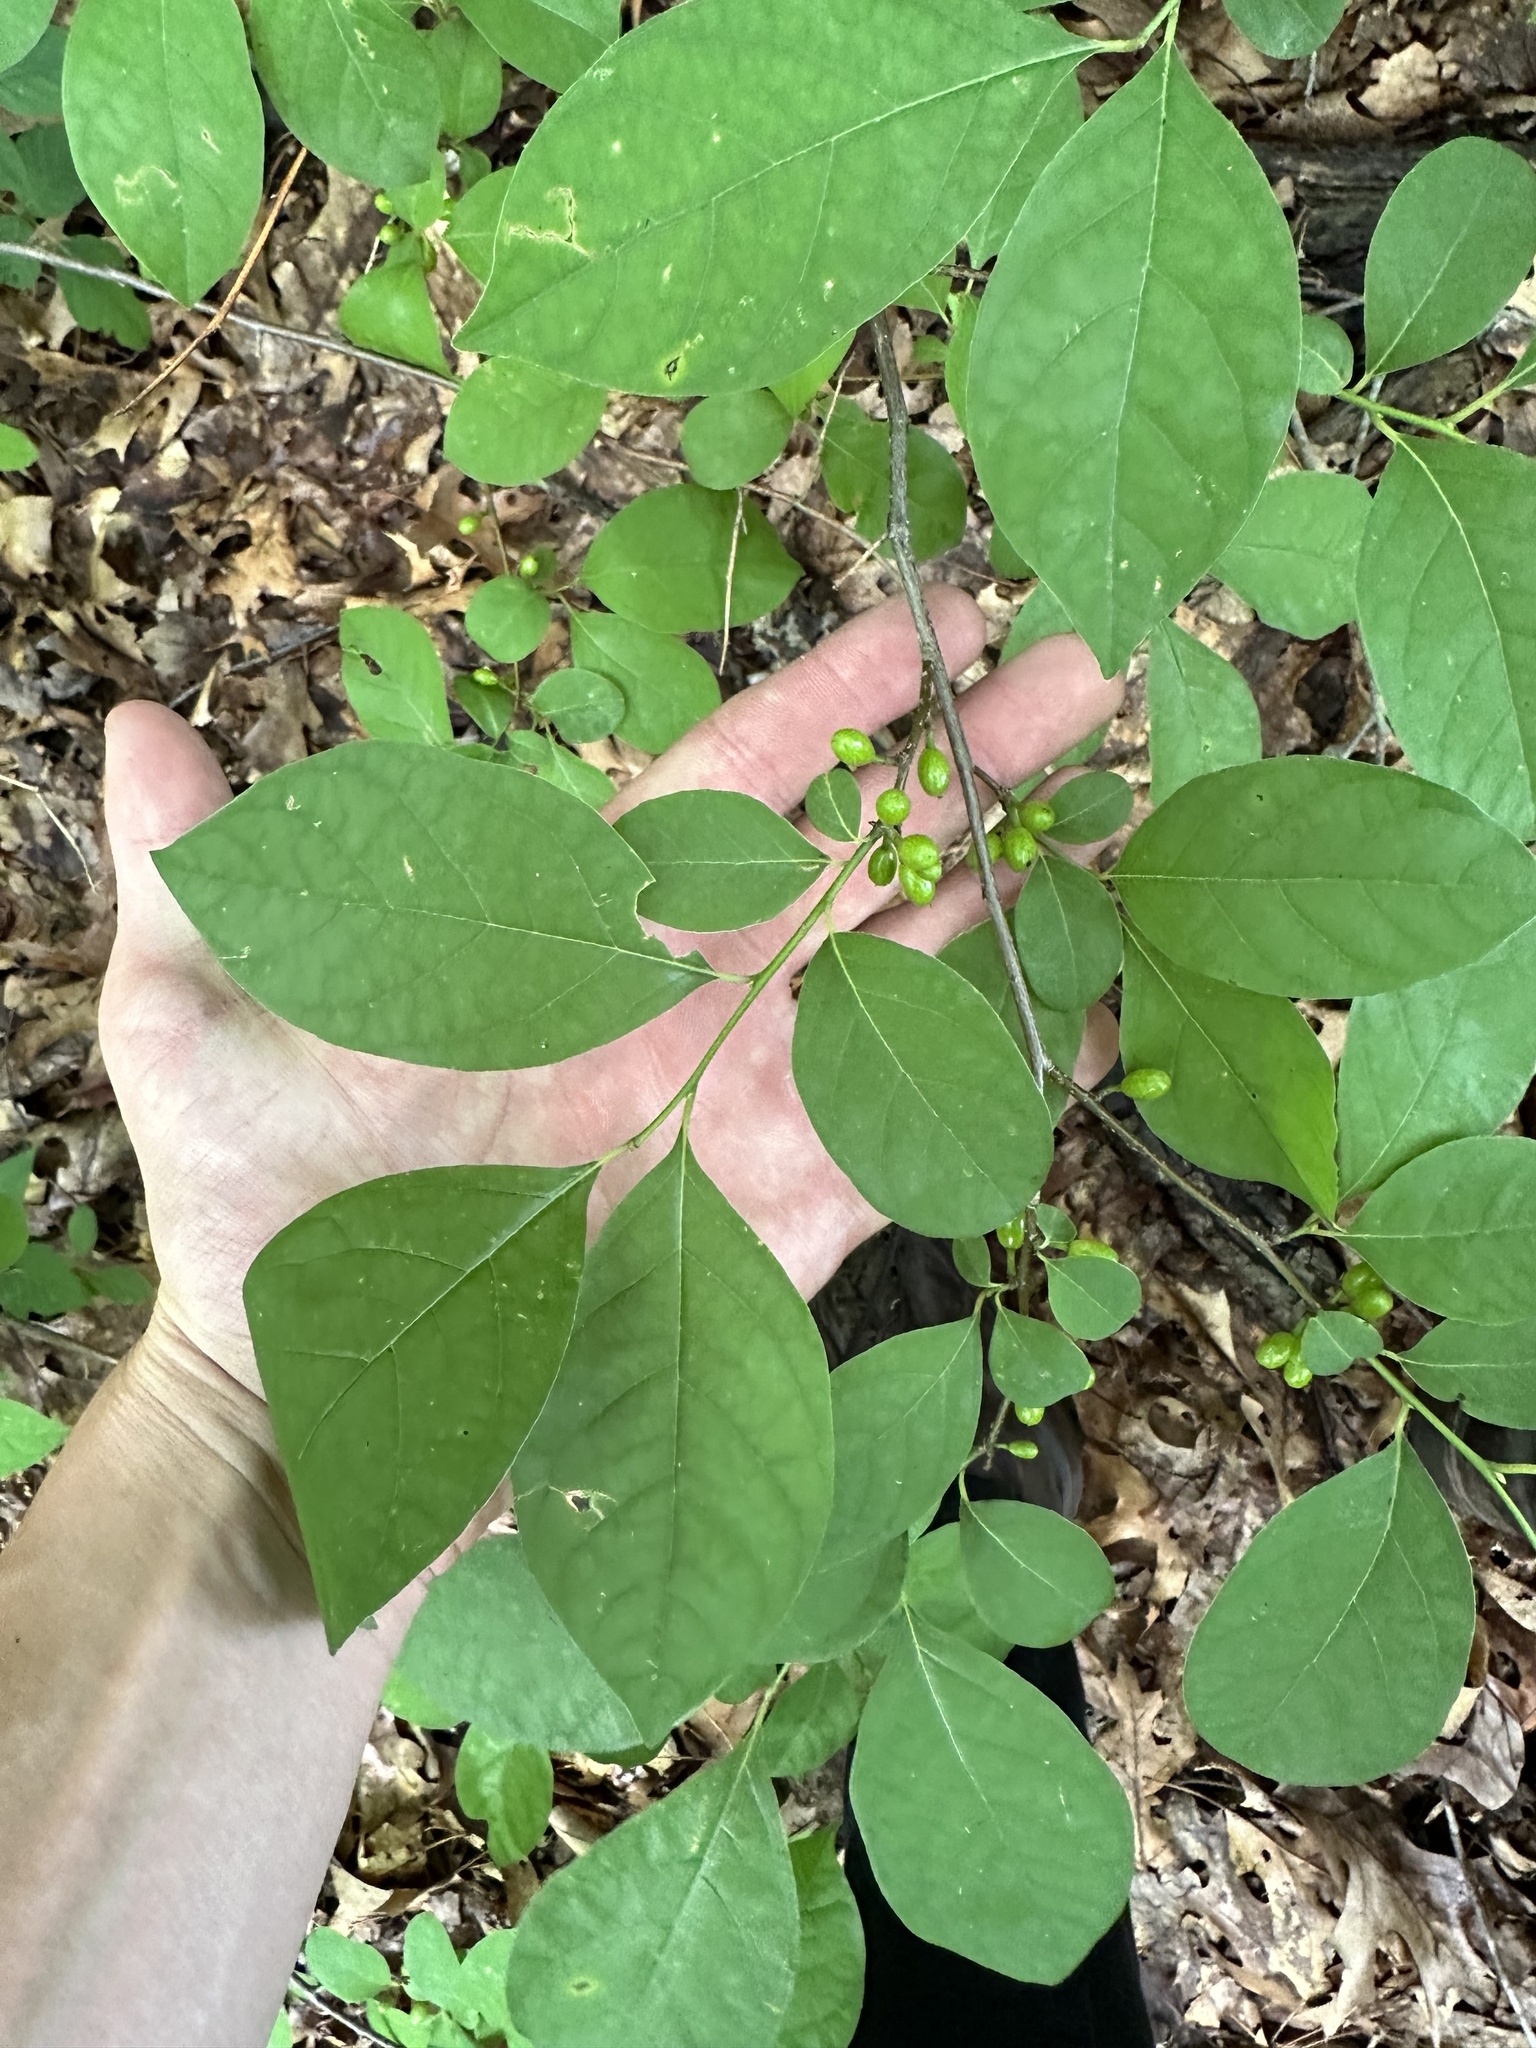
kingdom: Plantae
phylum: Tracheophyta
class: Magnoliopsida
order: Rosales
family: Rosaceae
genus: Prunus
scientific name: Prunus virginiana
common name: Chokecherry
